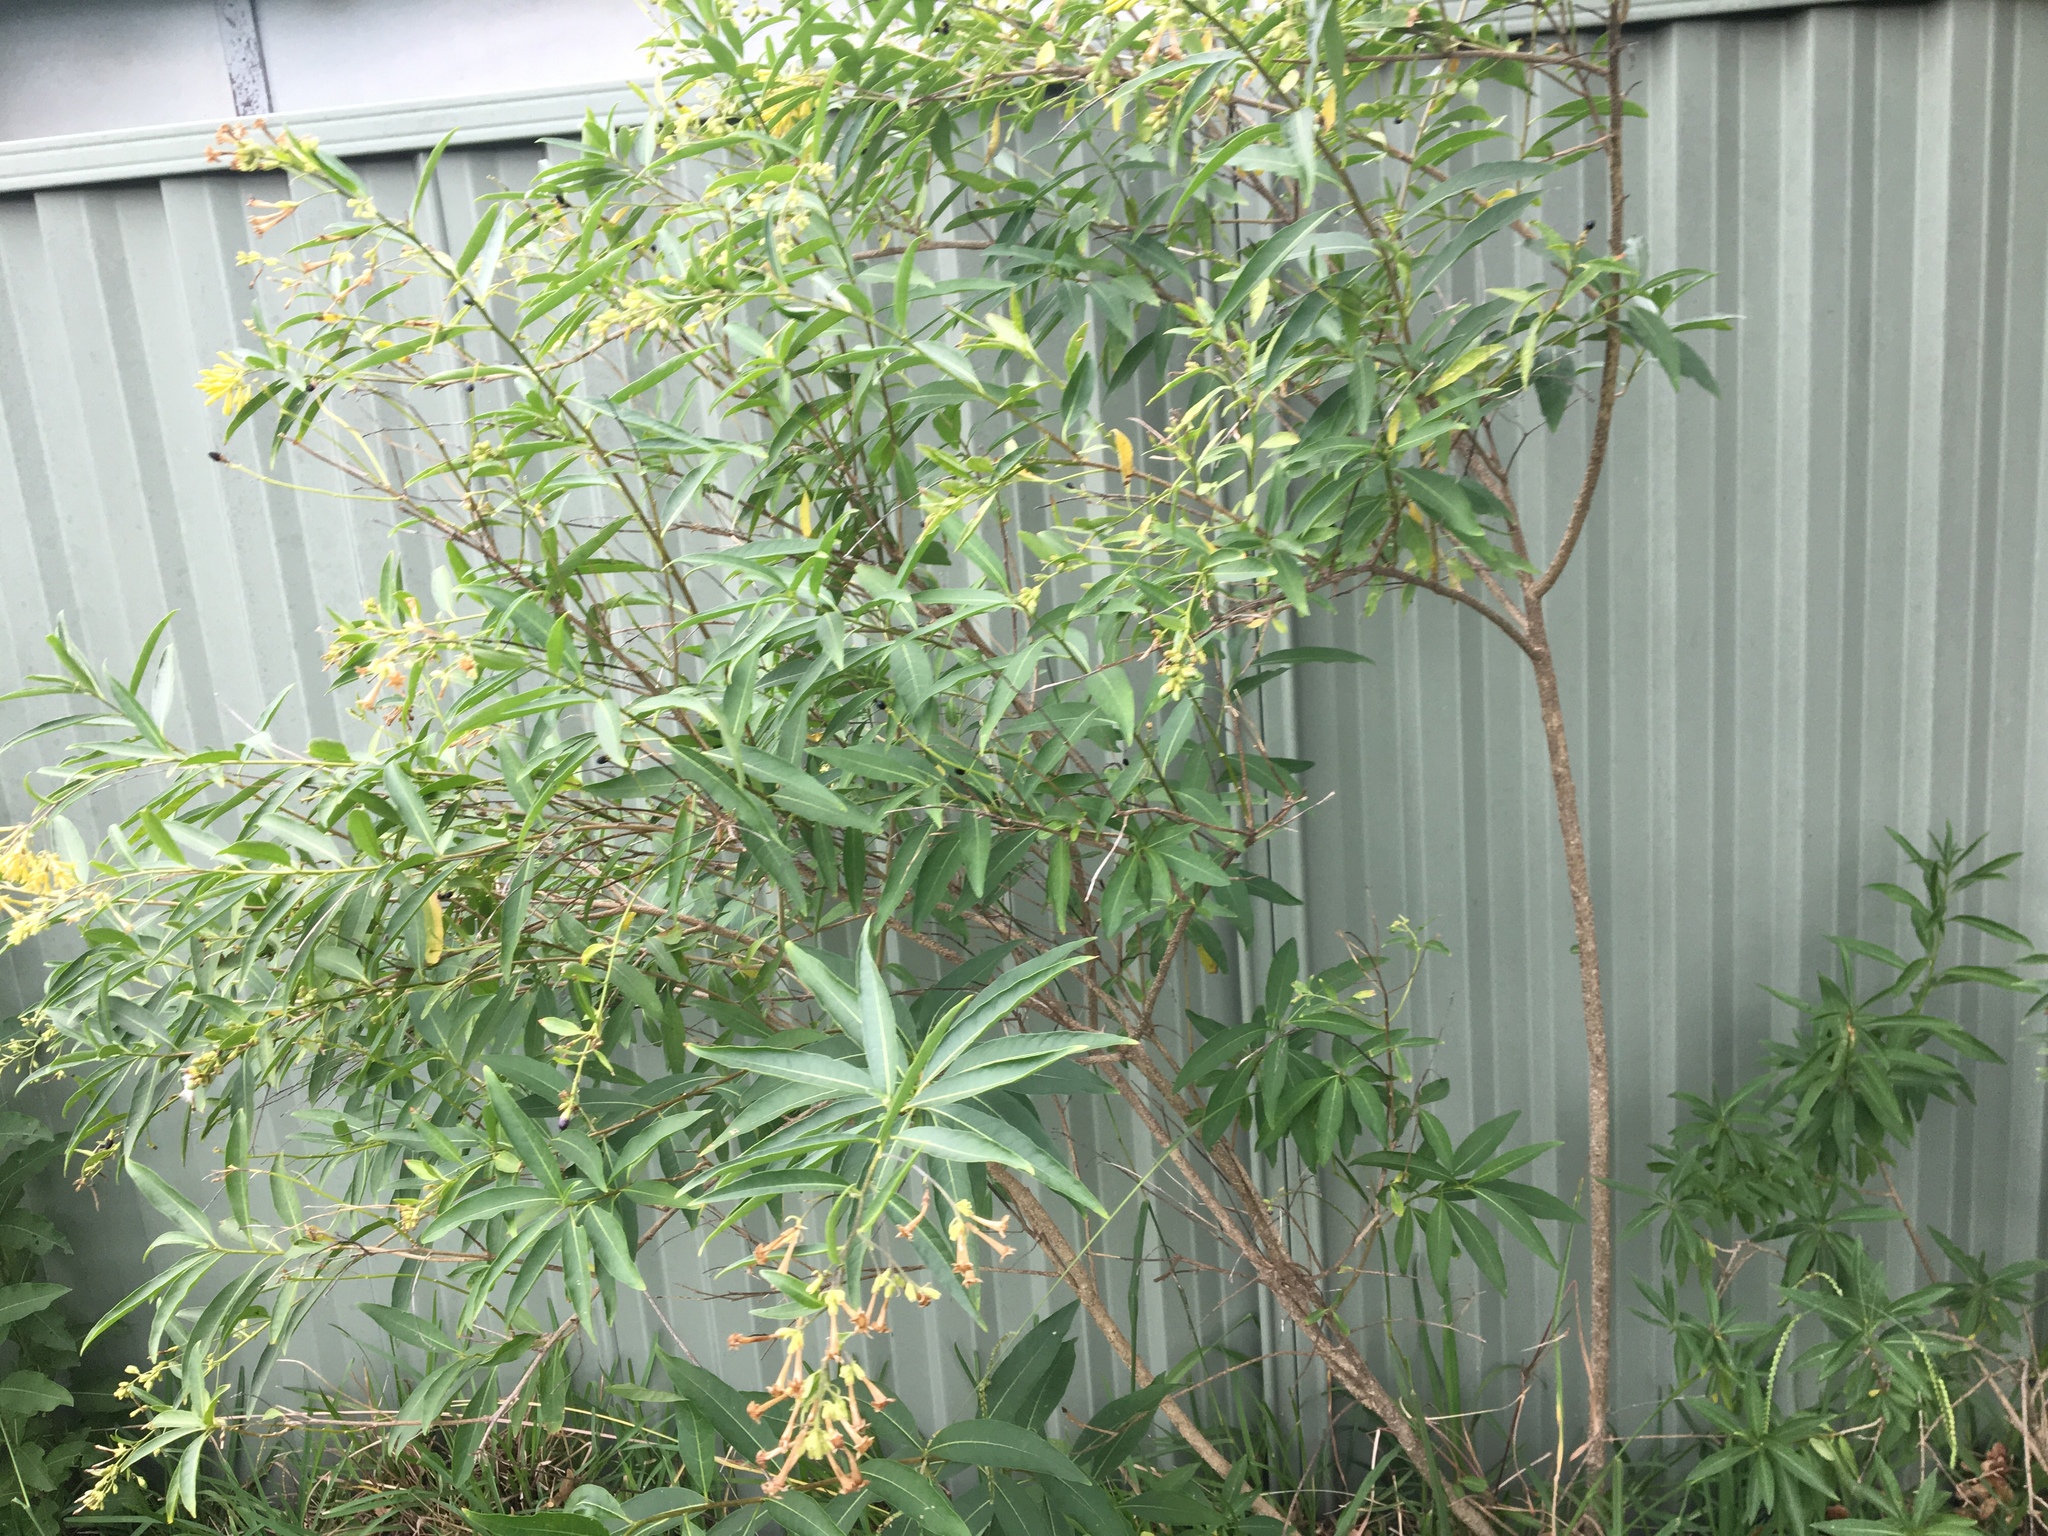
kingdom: Plantae
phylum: Tracheophyta
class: Magnoliopsida
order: Solanales
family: Solanaceae
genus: Cestrum
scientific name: Cestrum parqui
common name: Chilean cestrum
